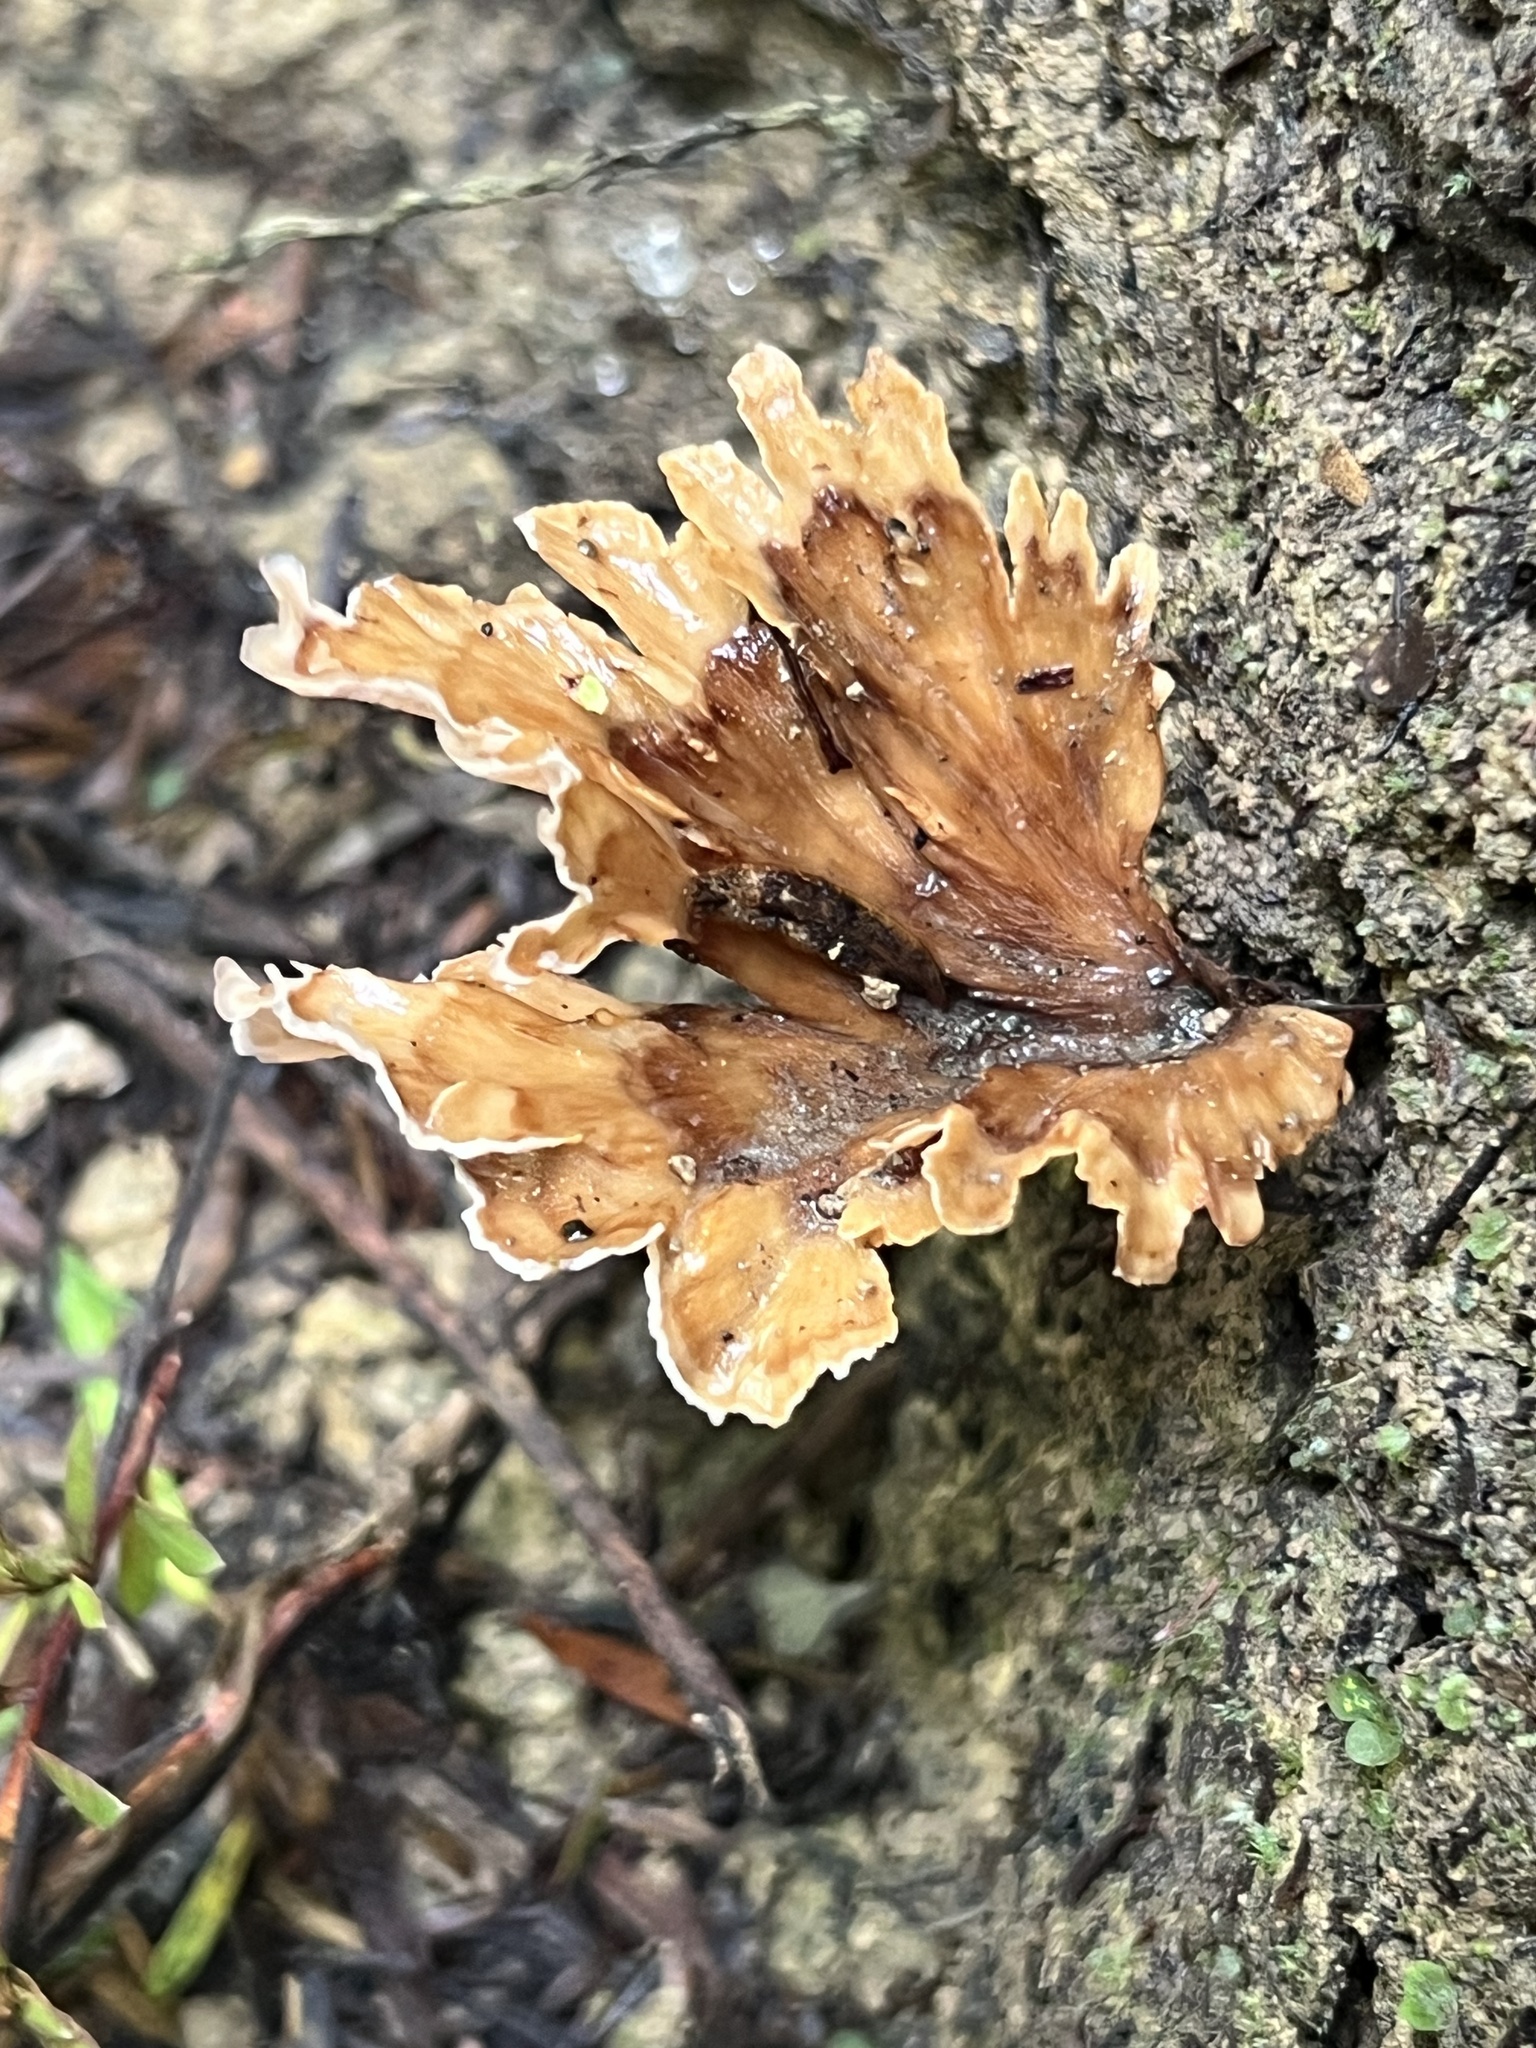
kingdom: Fungi
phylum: Basidiomycota
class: Agaricomycetes
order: Polyporales
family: Podoscyphaceae
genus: Podoscypha
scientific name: Podoscypha petalodes
